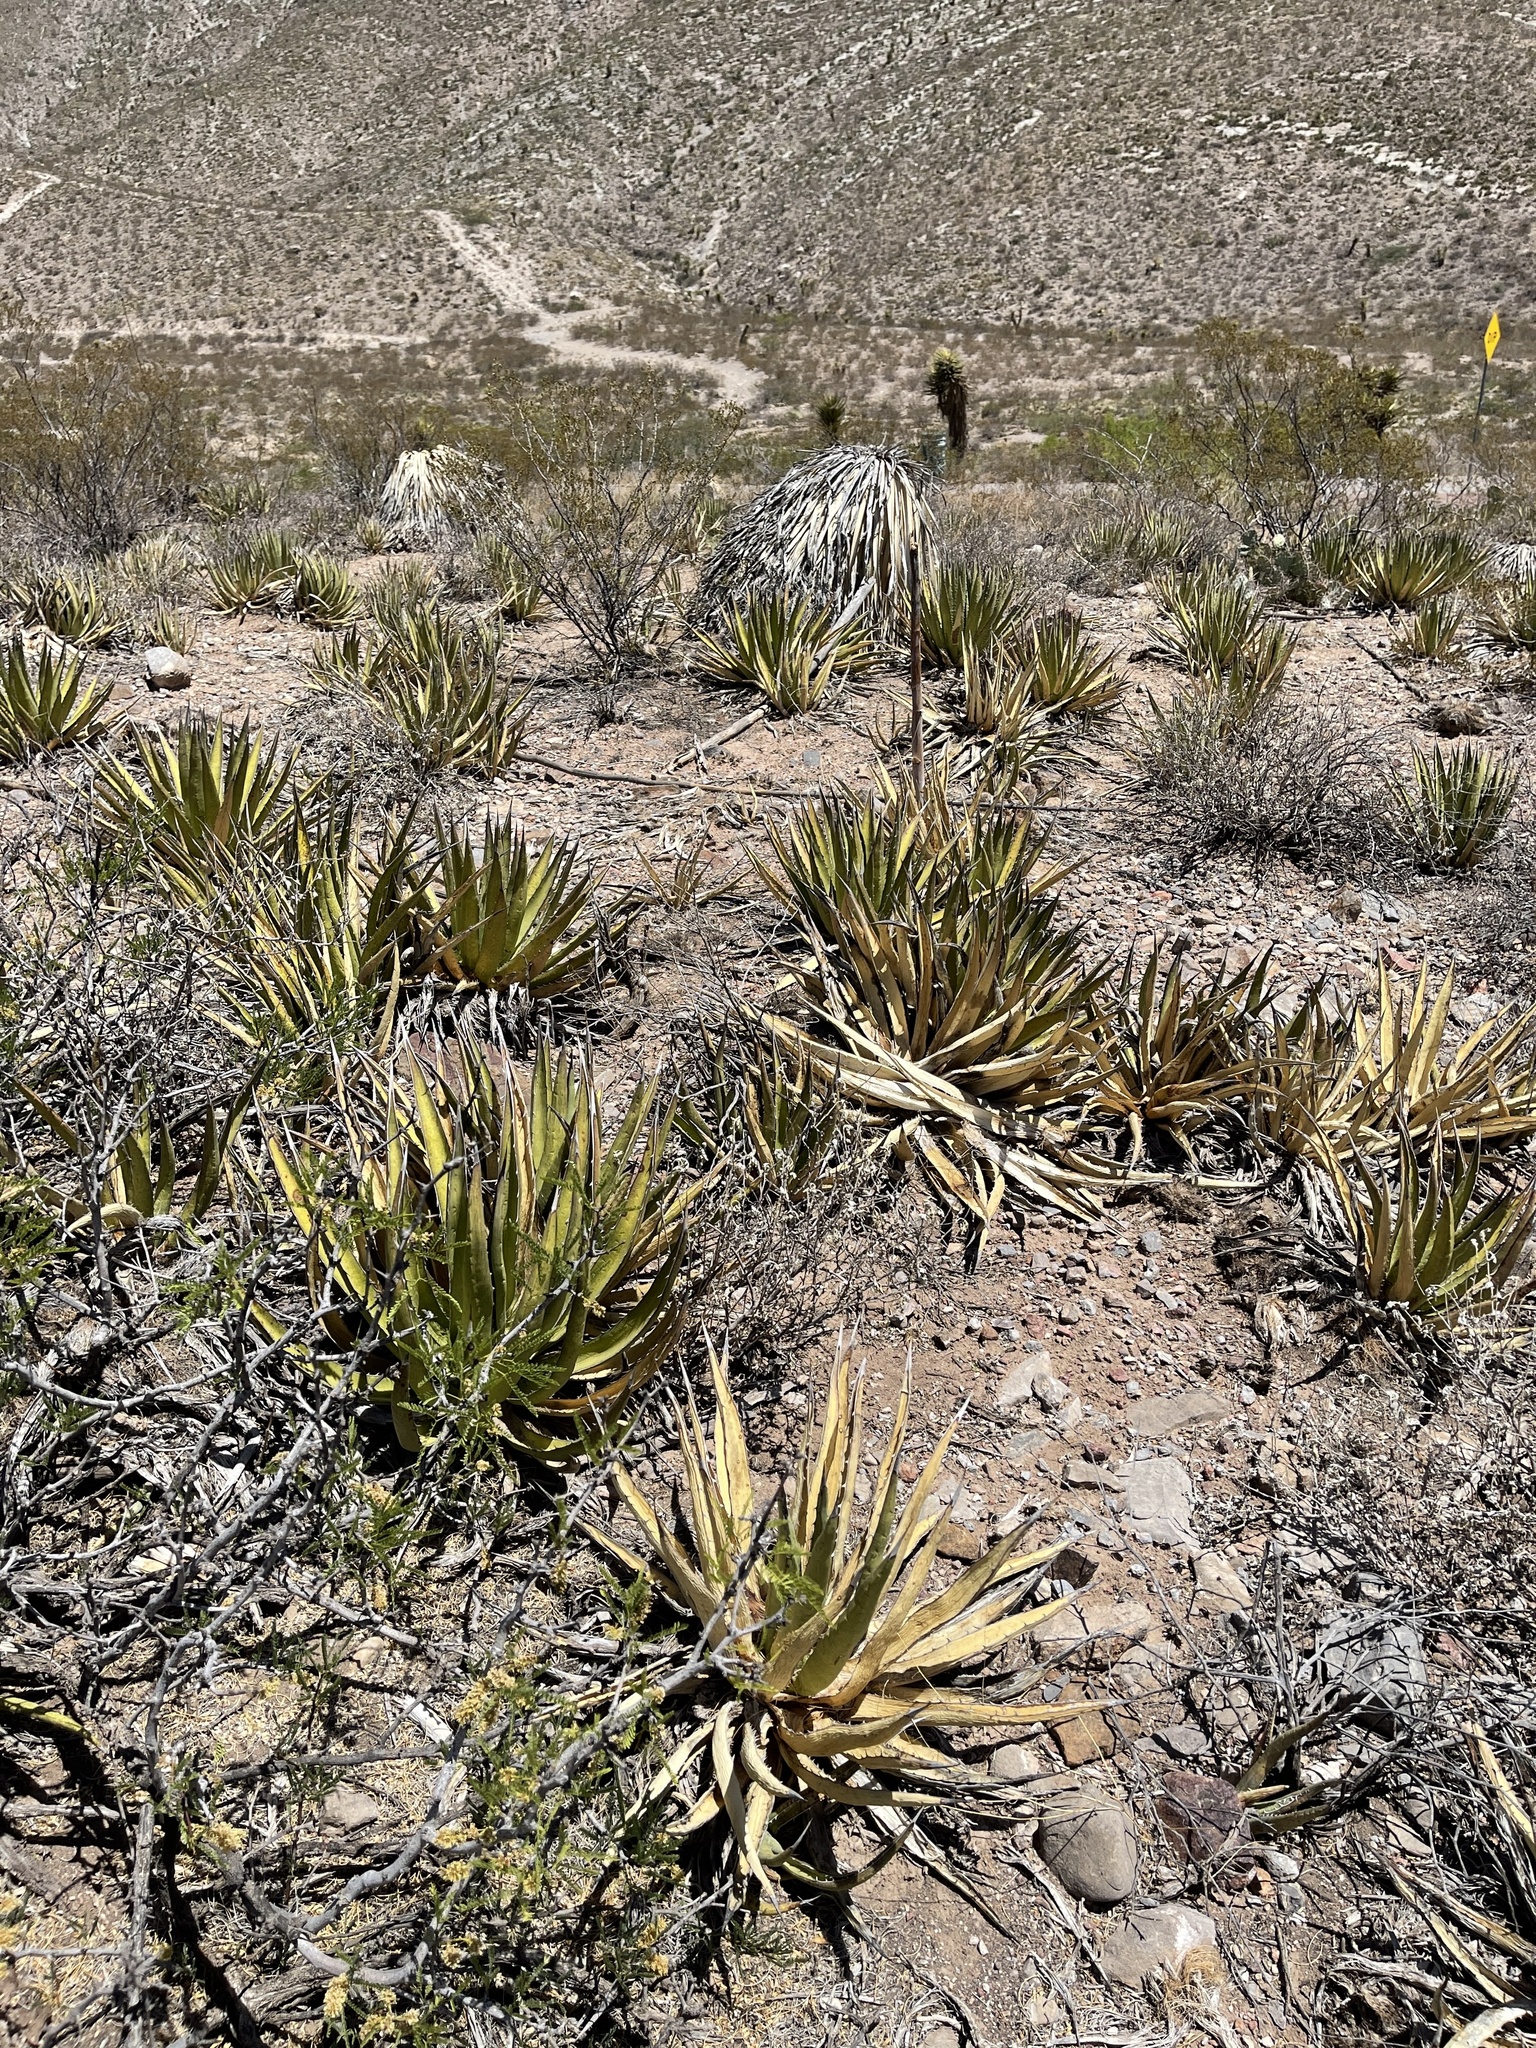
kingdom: Plantae
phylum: Tracheophyta
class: Liliopsida
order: Asparagales
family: Asparagaceae
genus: Agave
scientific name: Agave lechuguilla
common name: Lecheguilla agave
